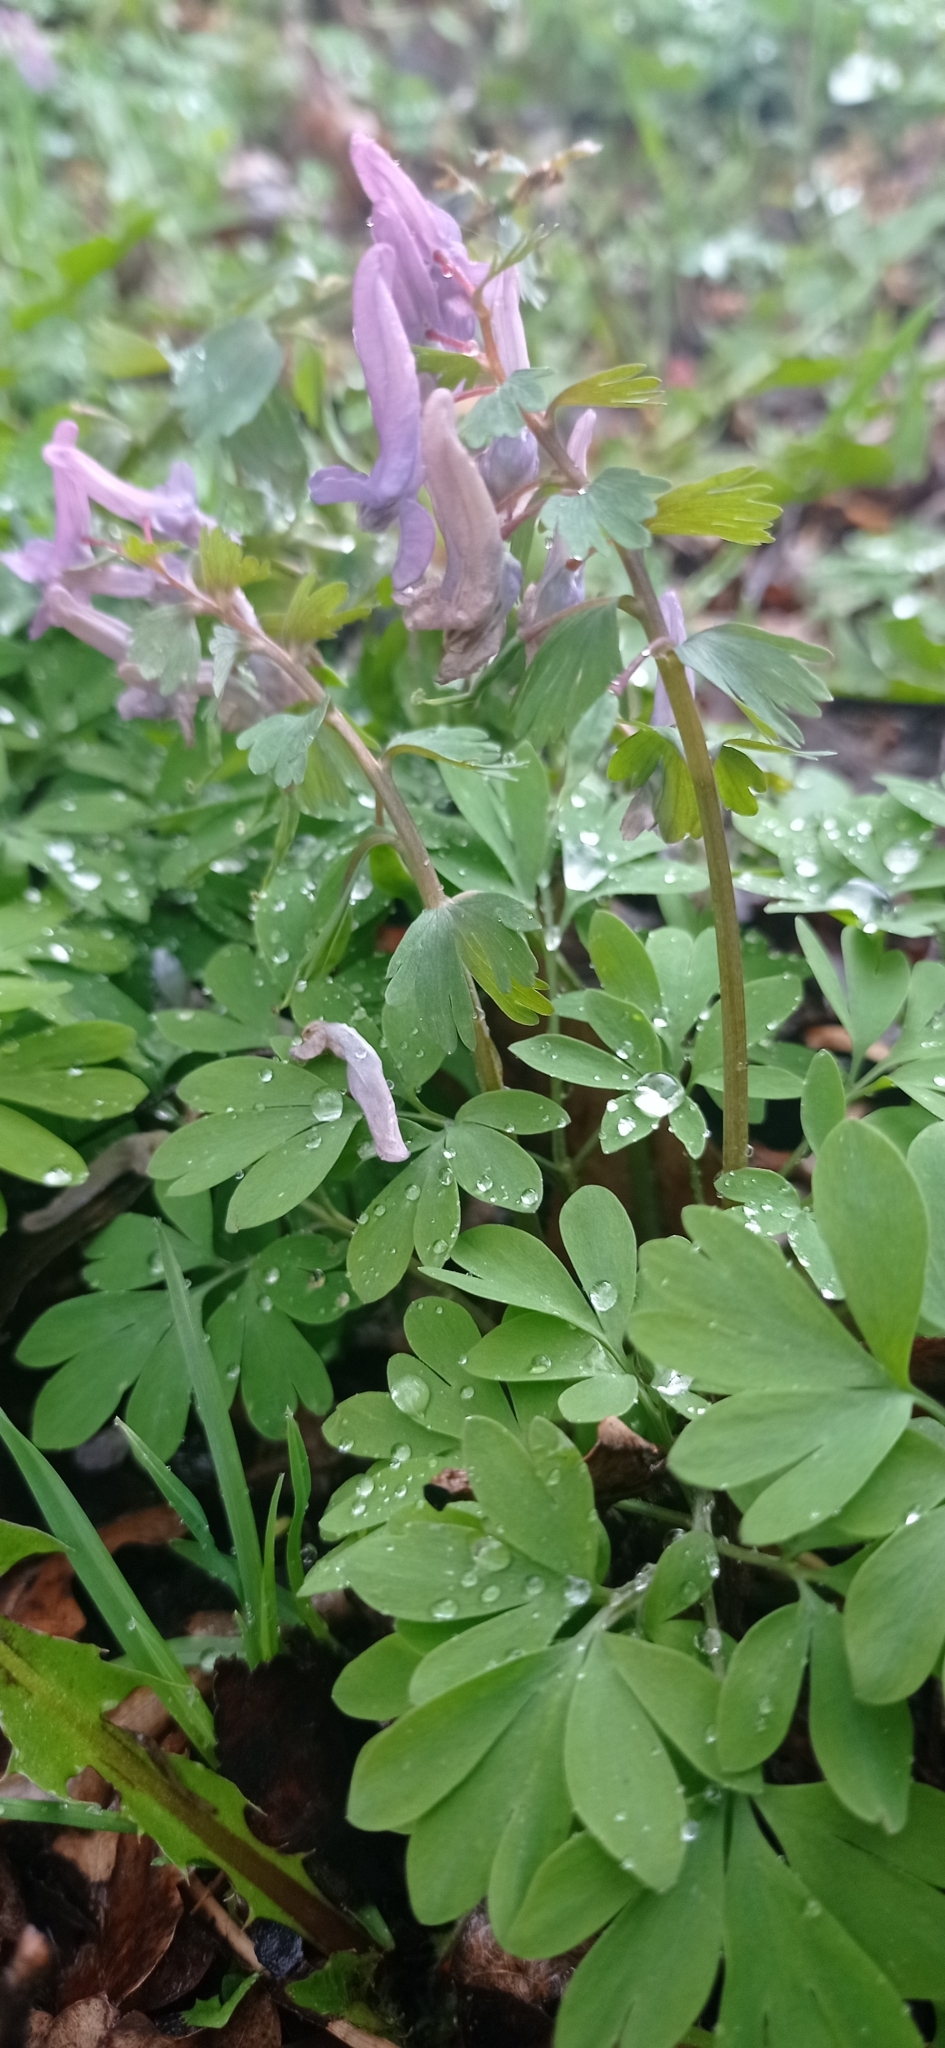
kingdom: Plantae
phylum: Tracheophyta
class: Magnoliopsida
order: Ranunculales
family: Papaveraceae
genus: Corydalis
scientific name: Corydalis solida
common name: Bird-in-a-bush
